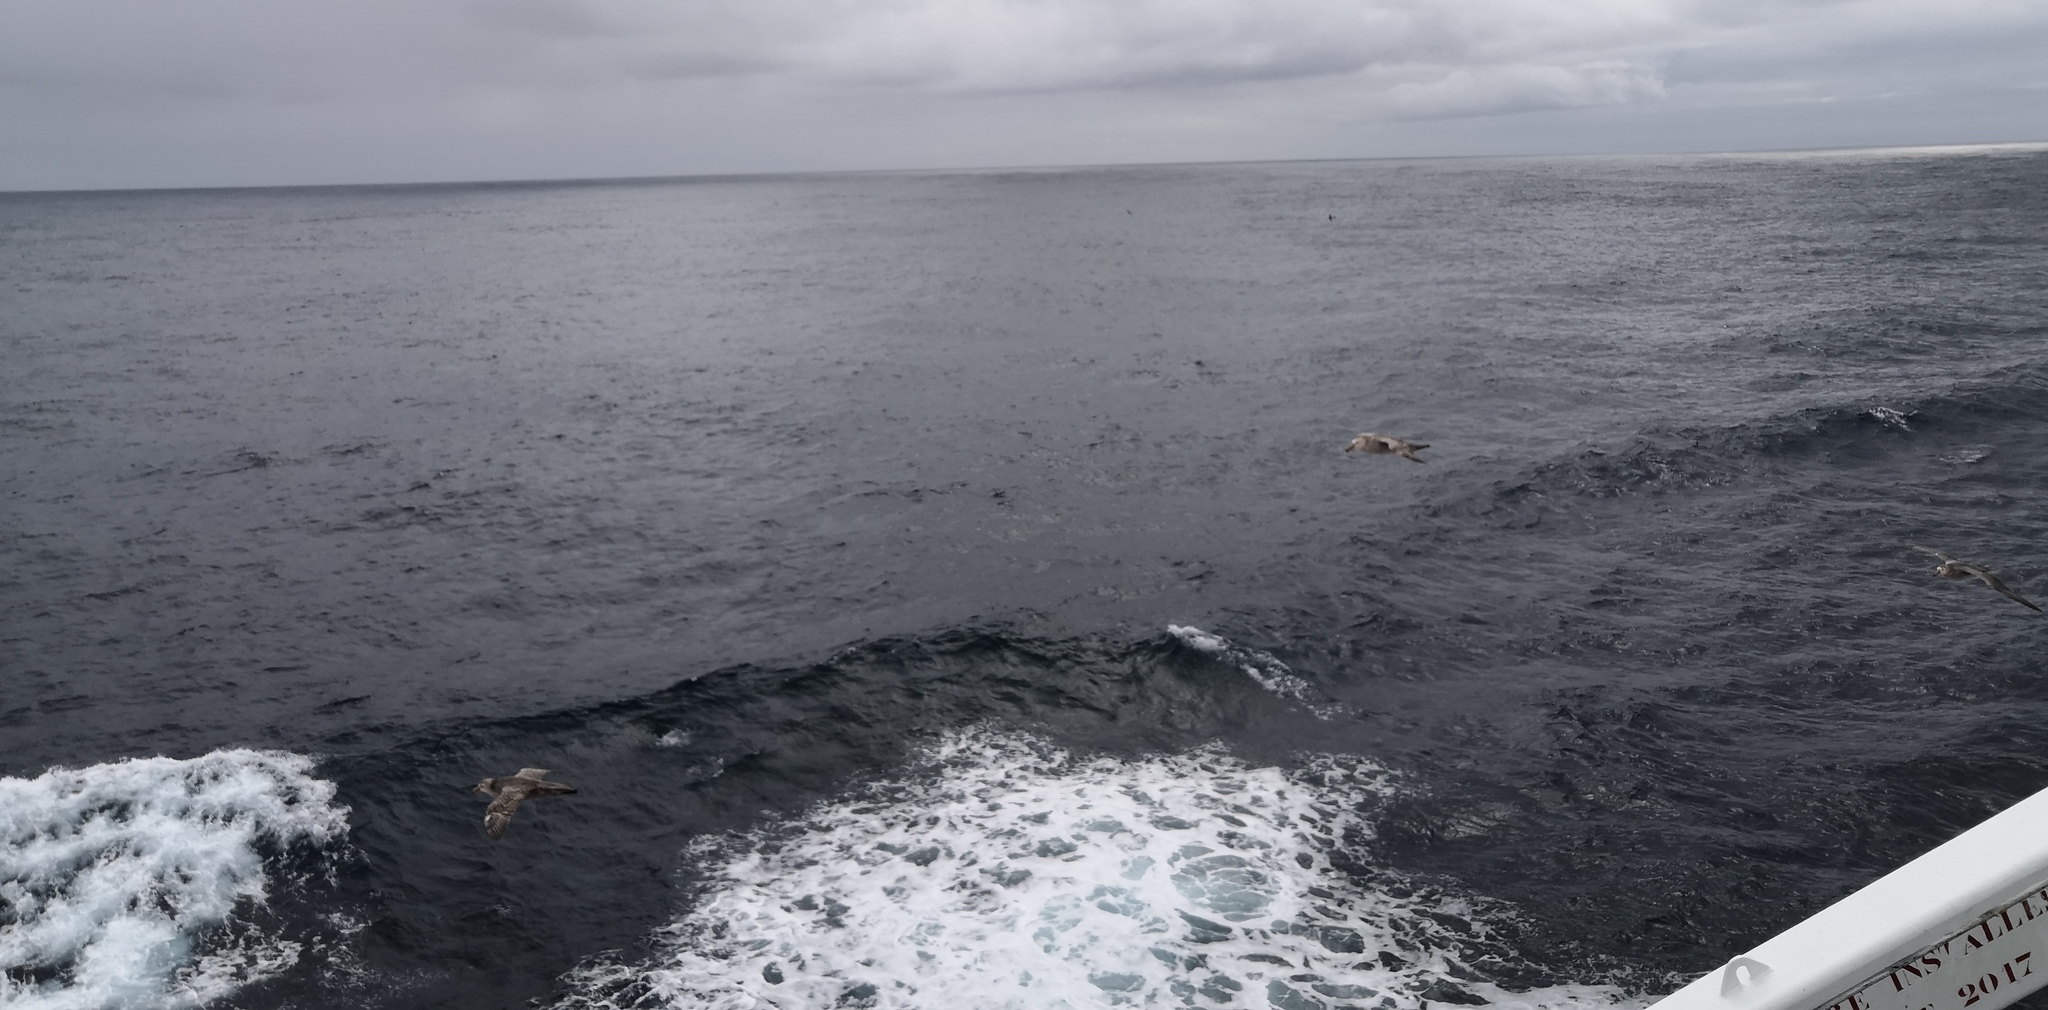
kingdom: Animalia
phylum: Chordata
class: Aves
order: Procellariiformes
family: Procellariidae
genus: Macronectes
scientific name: Macronectes
